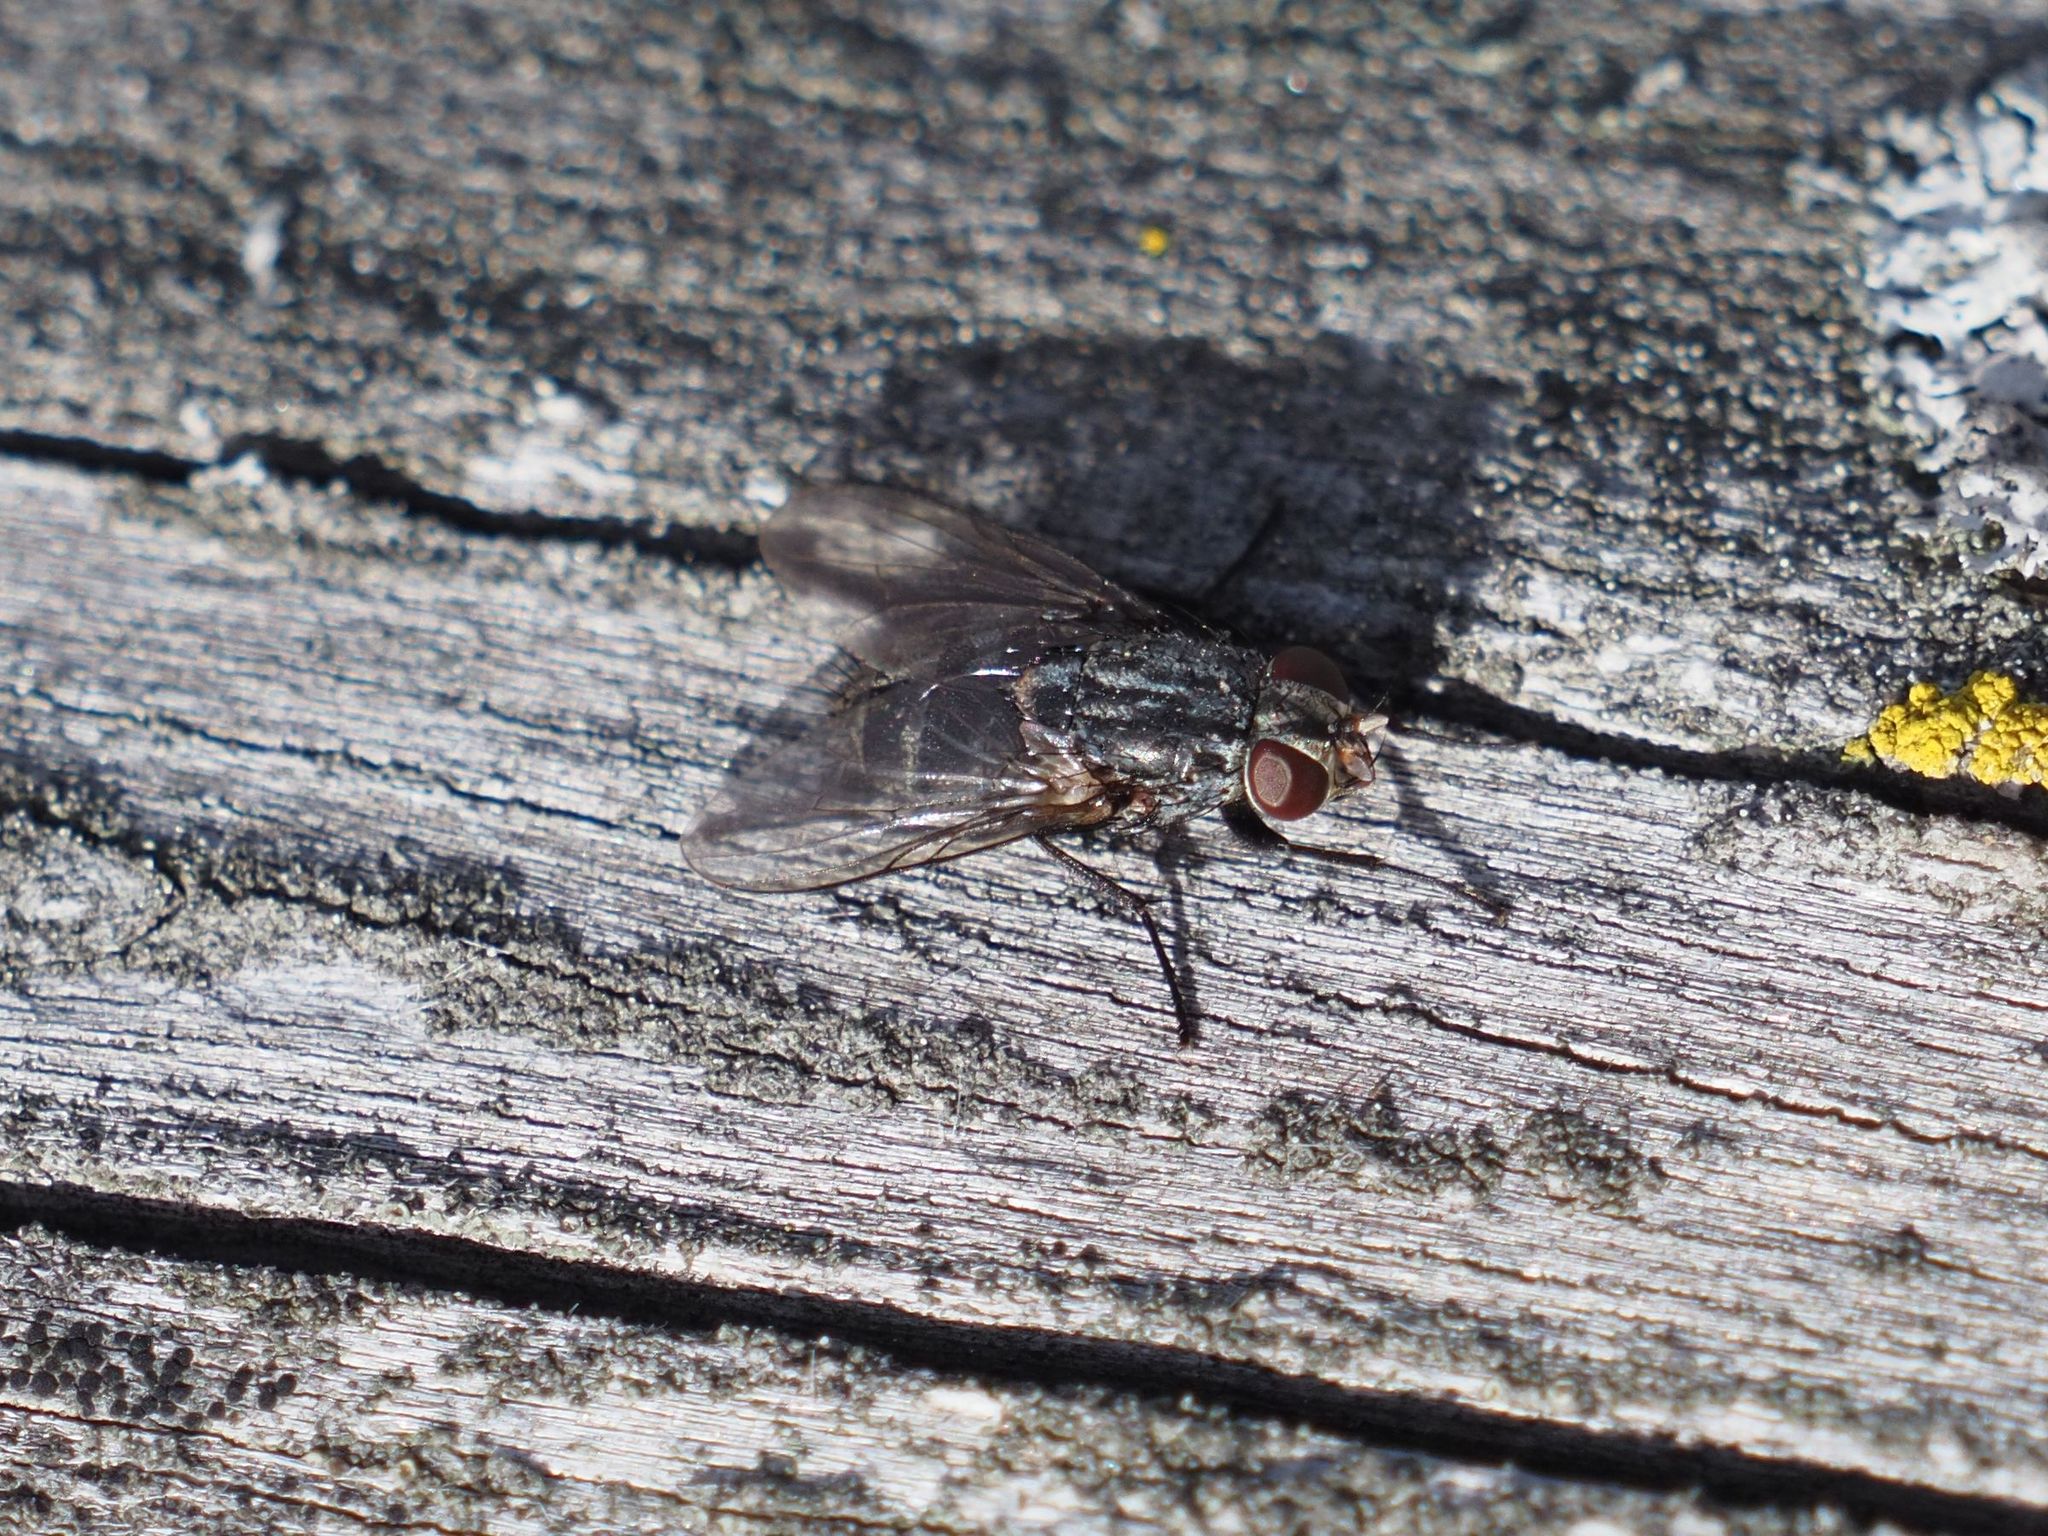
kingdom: Animalia
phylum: Arthropoda
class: Insecta
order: Diptera
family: Muscidae
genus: Muscina
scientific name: Muscina prolapsa
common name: Muscoid fly
